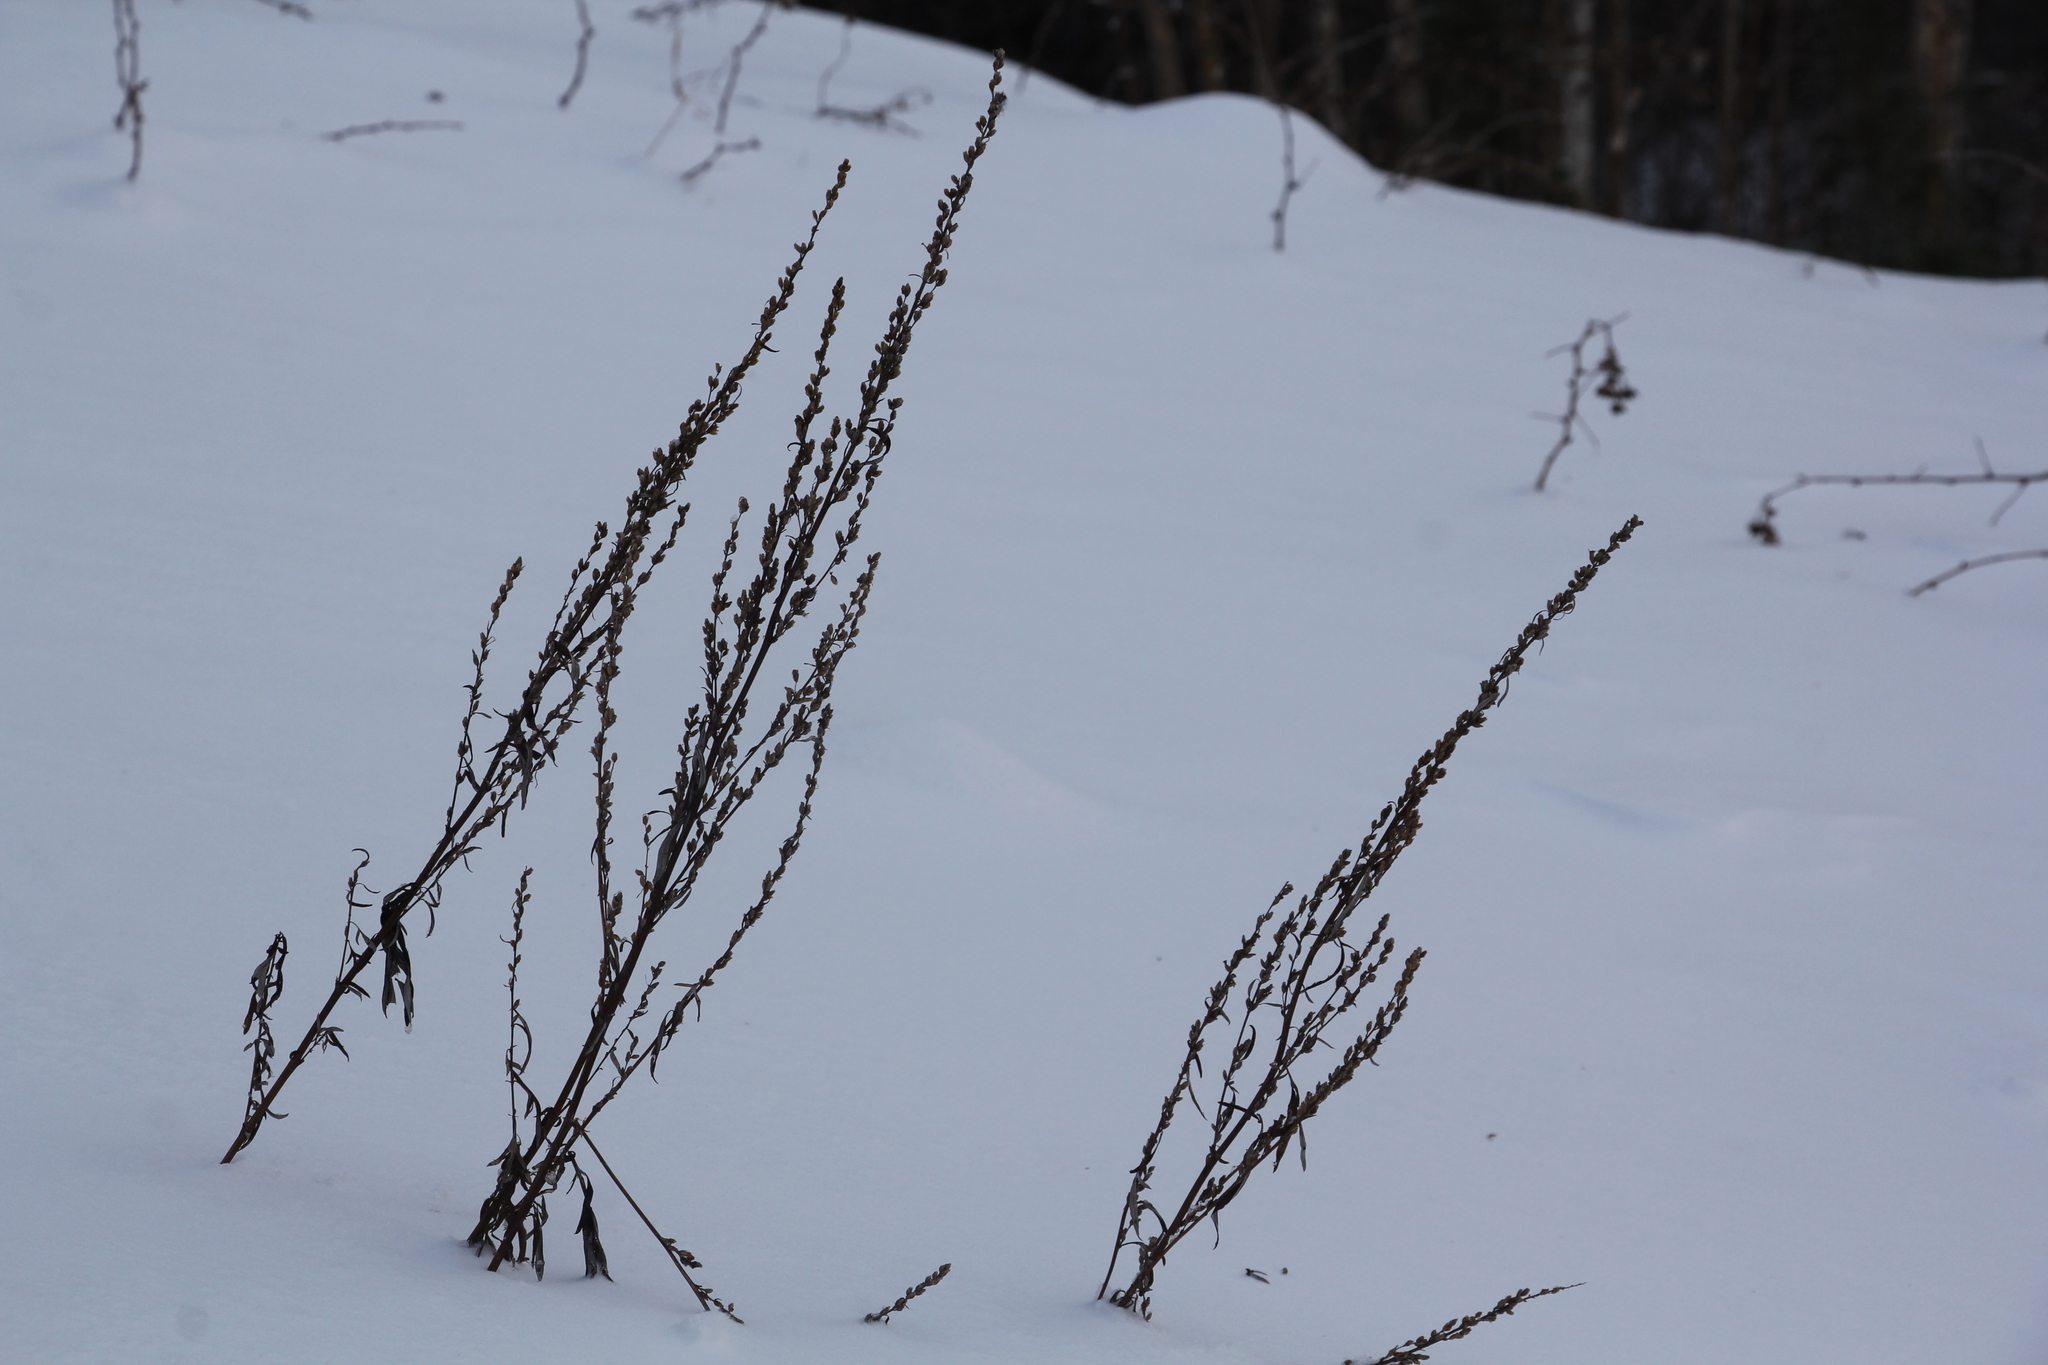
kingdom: Plantae
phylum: Tracheophyta
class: Magnoliopsida
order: Asterales
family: Asteraceae
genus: Artemisia
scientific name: Artemisia vulgaris
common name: Mugwort
